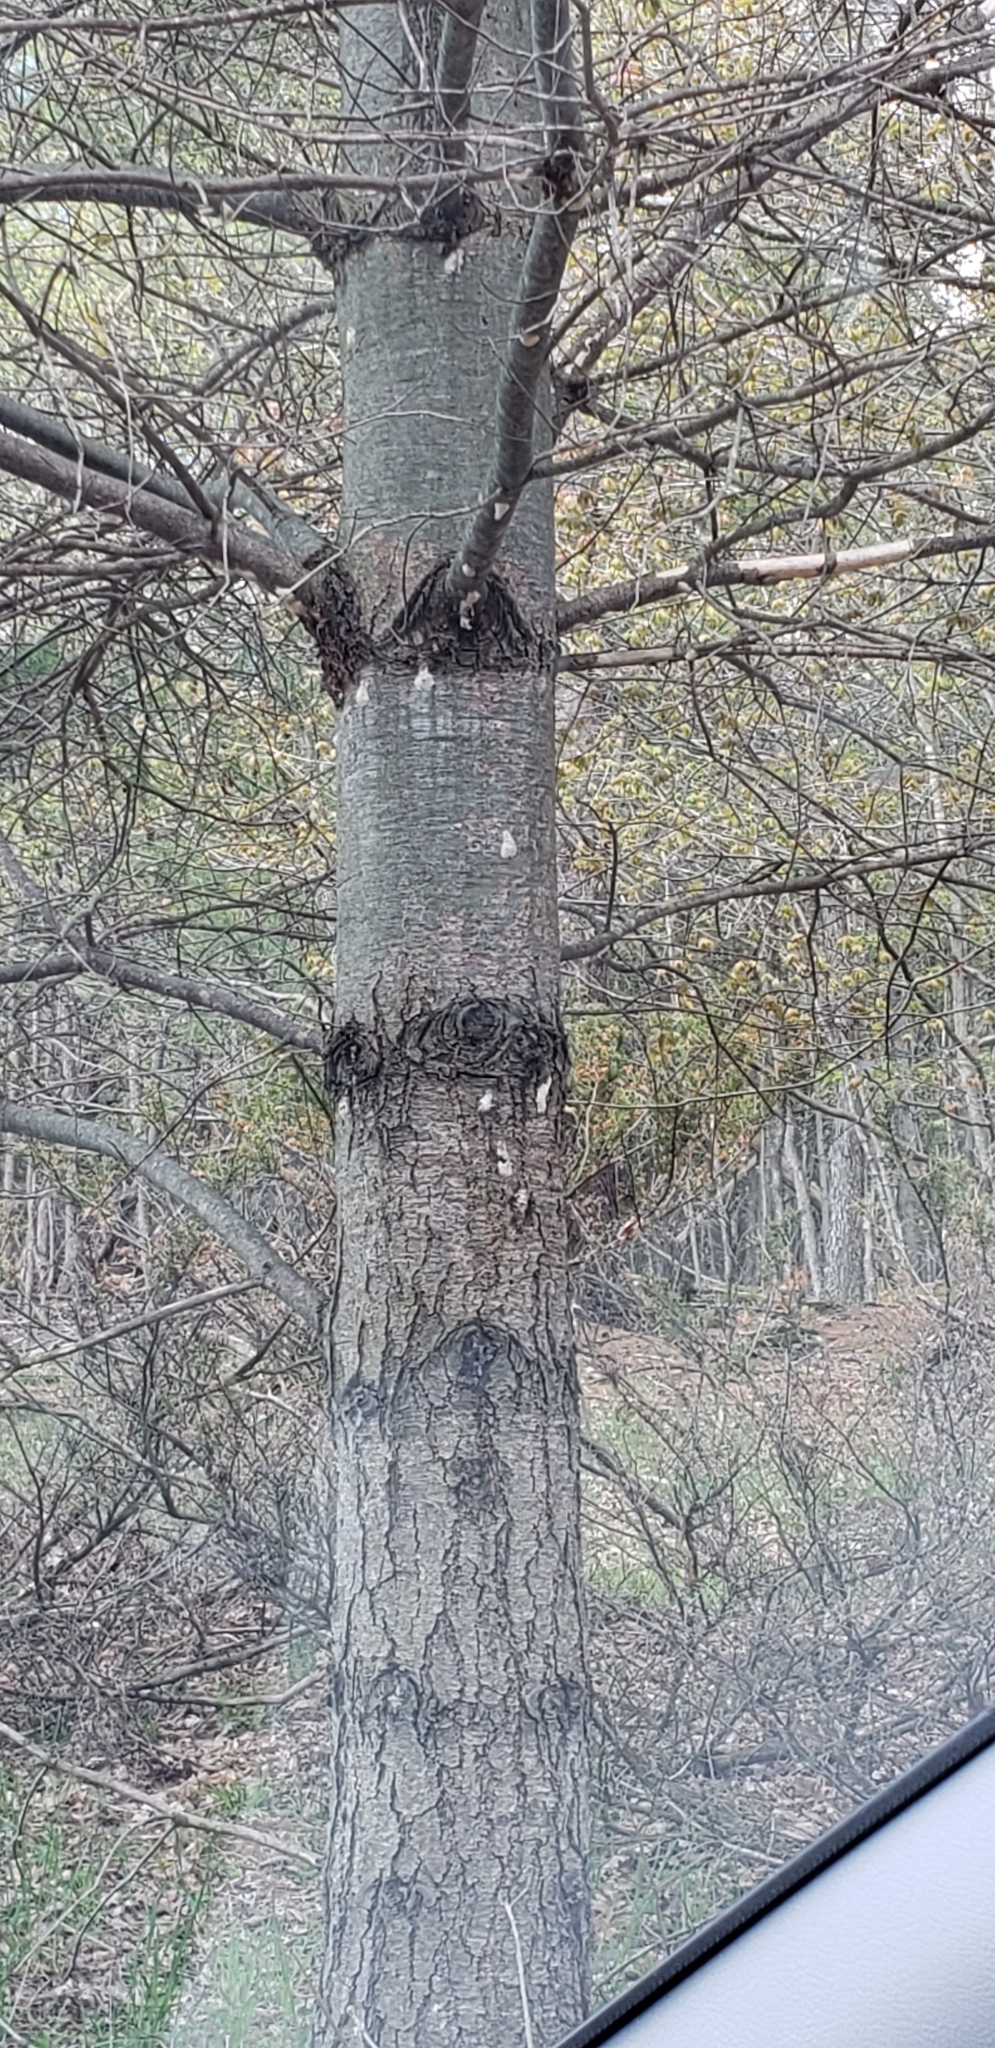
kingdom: Animalia
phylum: Arthropoda
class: Insecta
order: Lepidoptera
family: Erebidae
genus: Lymantria
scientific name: Lymantria dispar
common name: Gypsy moth
